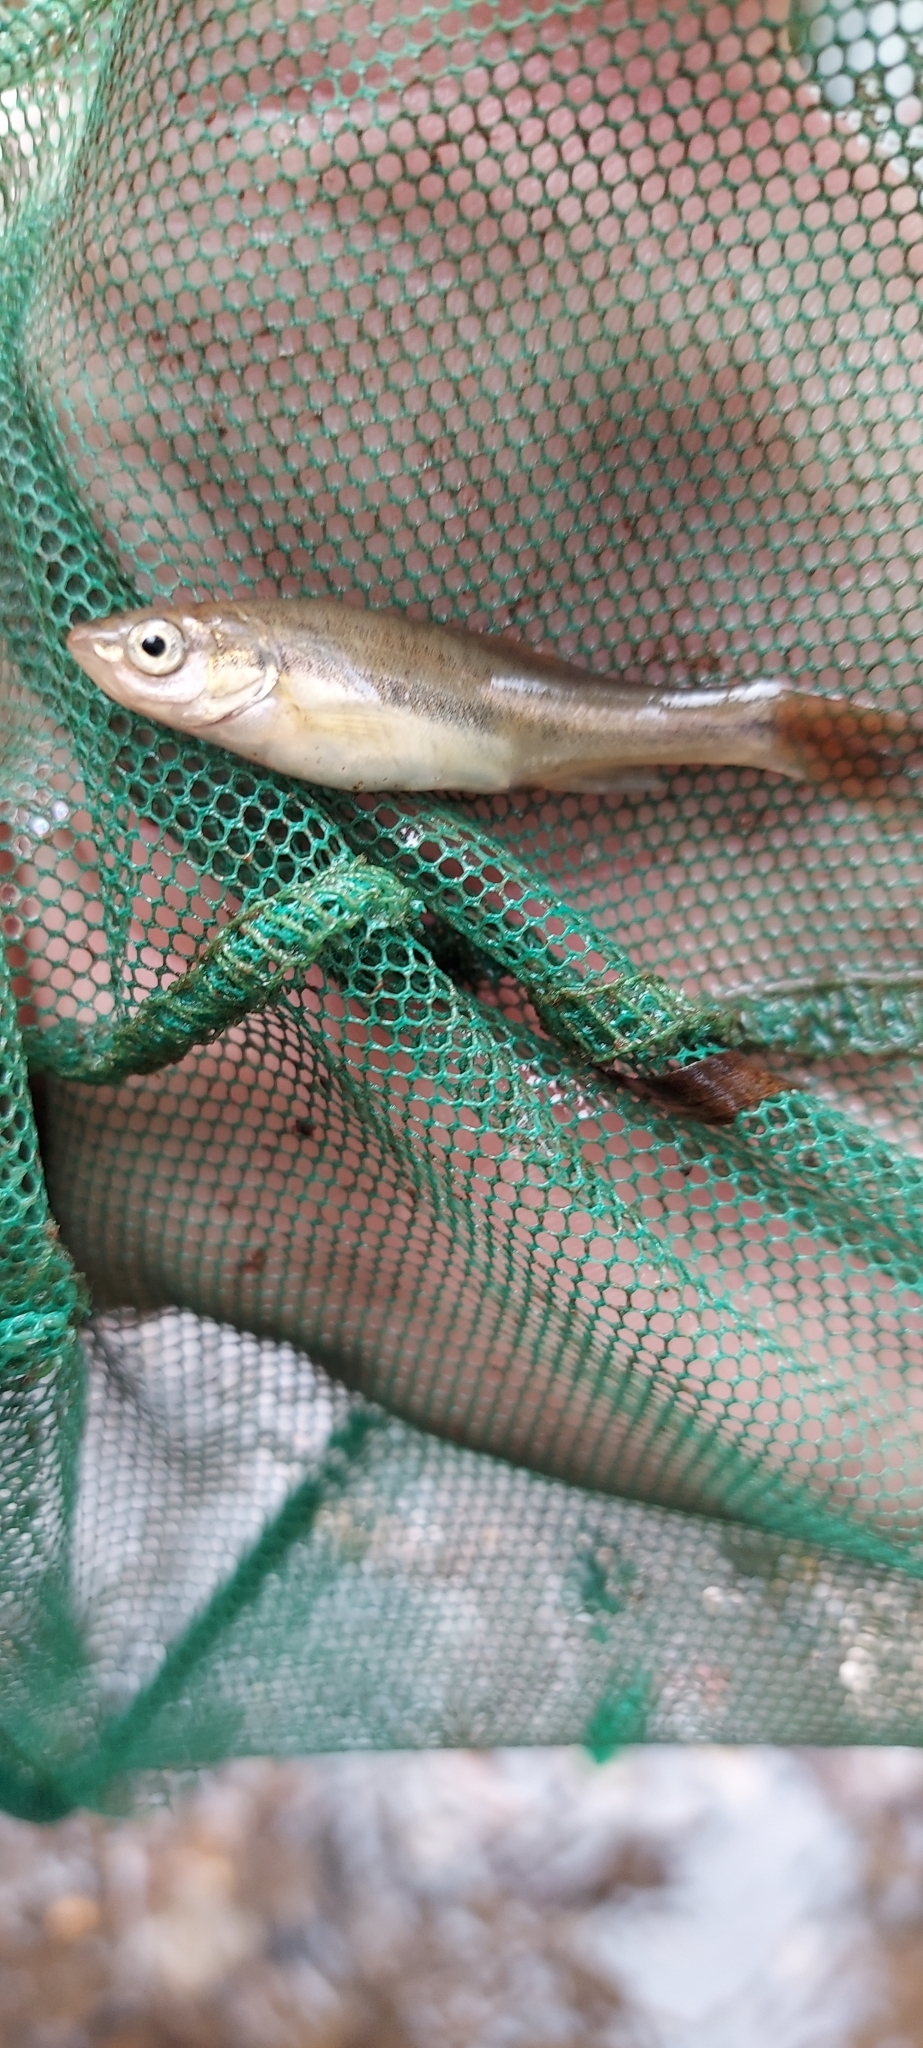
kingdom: Animalia
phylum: Chordata
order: Cypriniformes
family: Cyprinidae
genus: Chrosomus
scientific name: Chrosomus oreas
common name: Mountain redbelly dace
